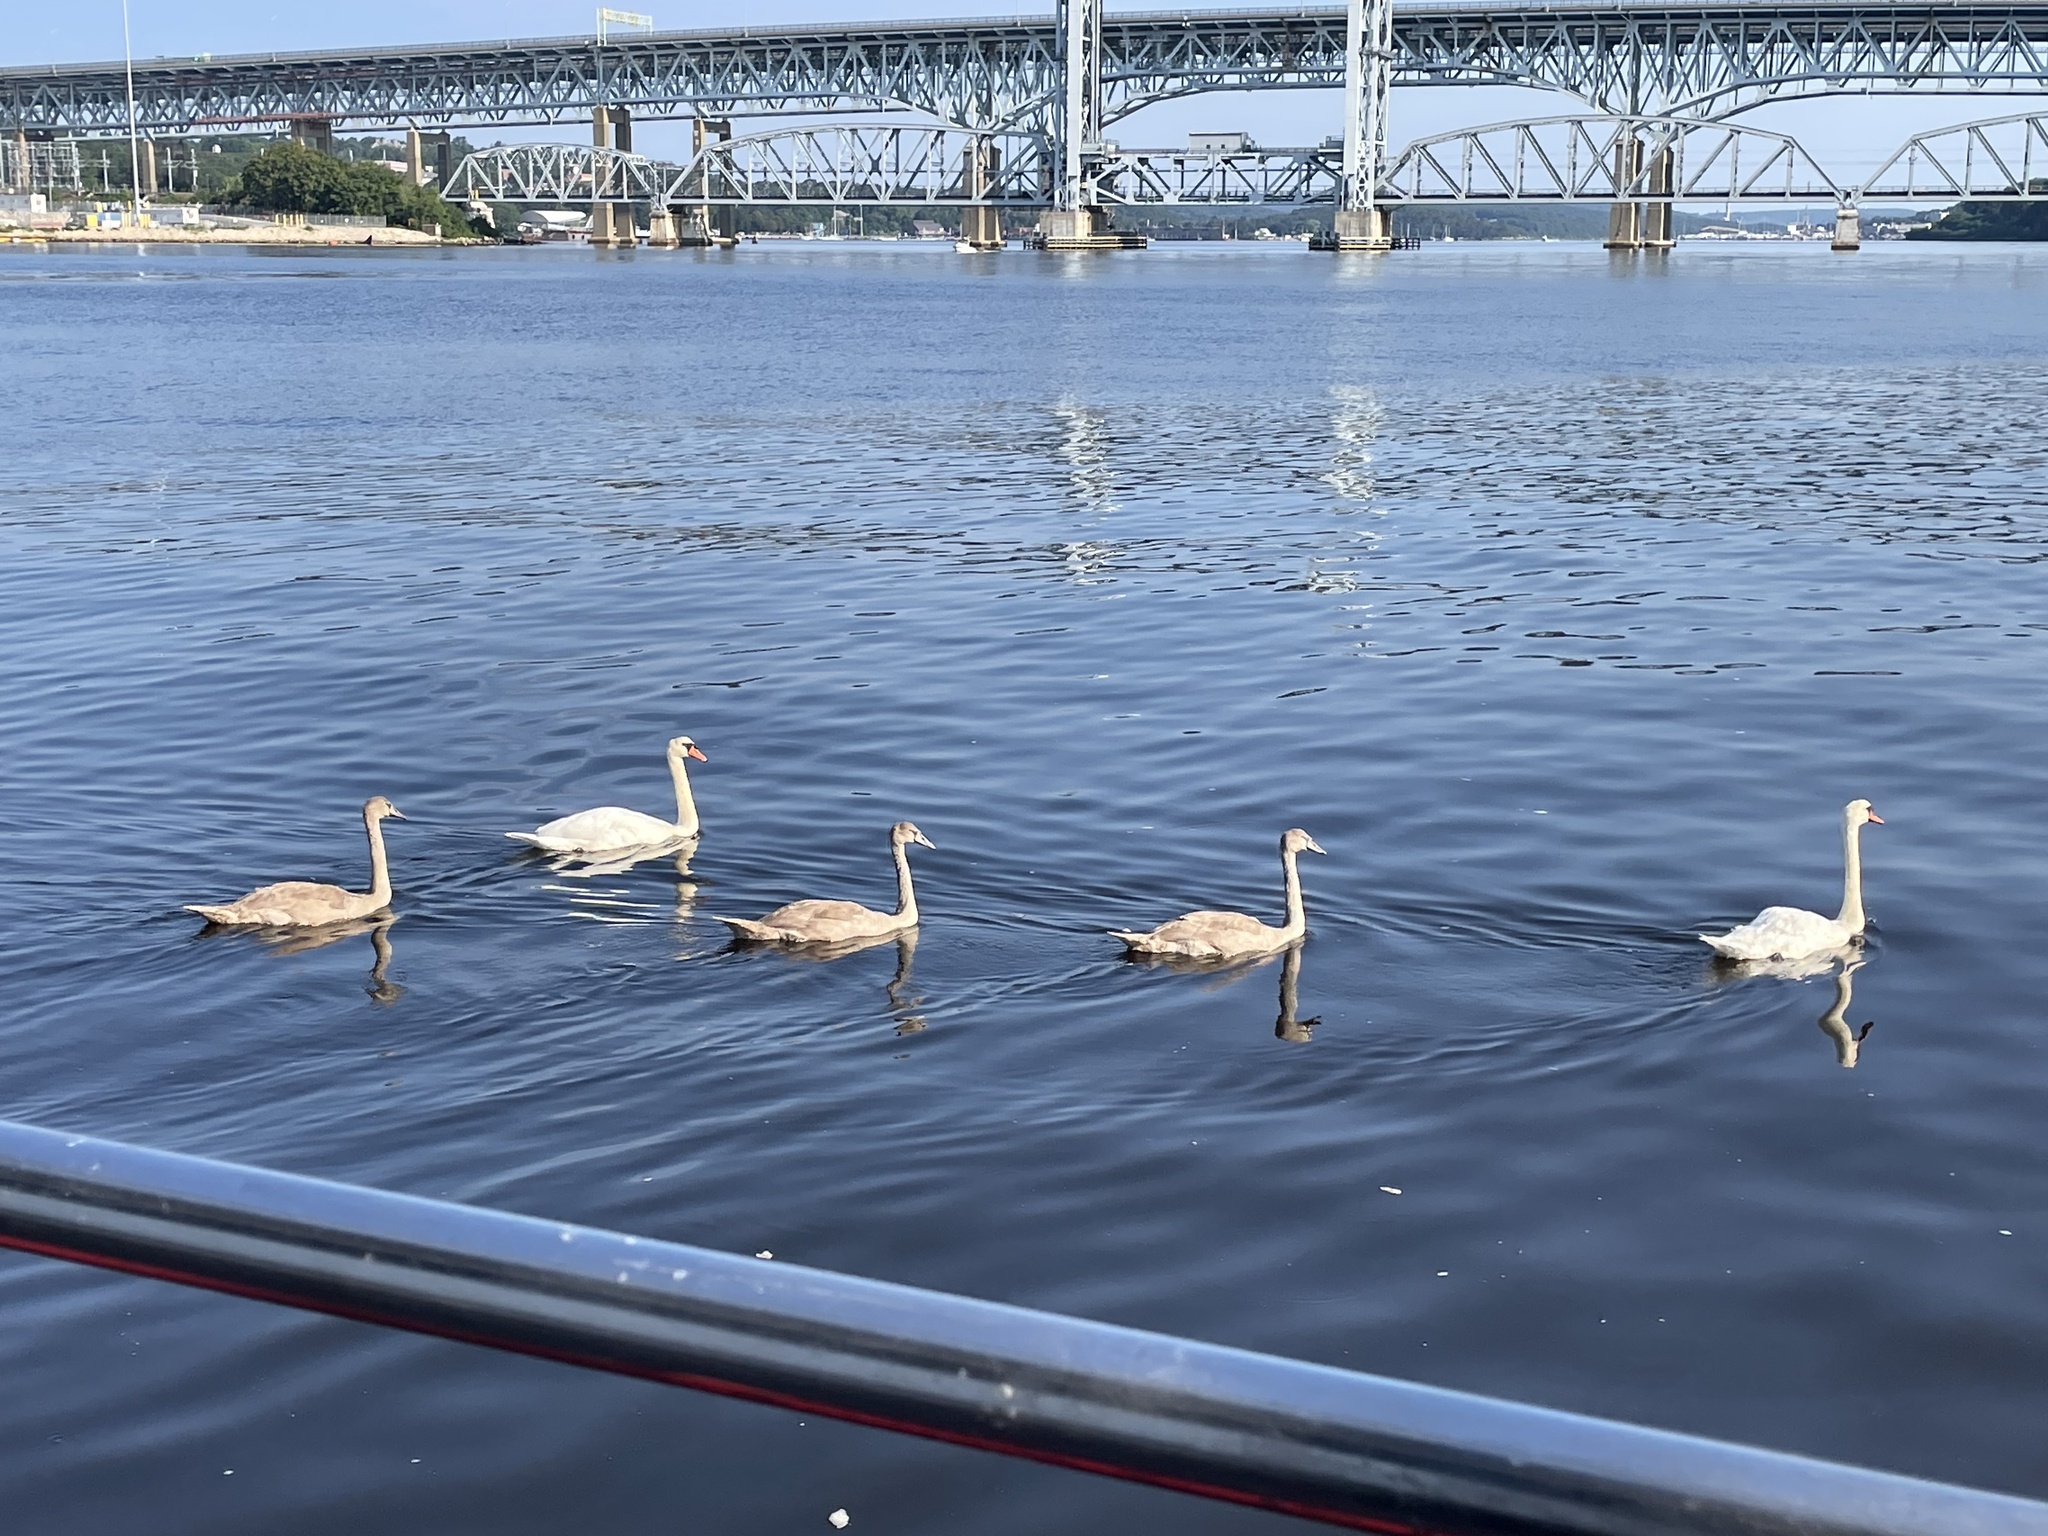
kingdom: Animalia
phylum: Chordata
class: Aves
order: Anseriformes
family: Anatidae
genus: Cygnus
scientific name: Cygnus olor
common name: Mute swan
